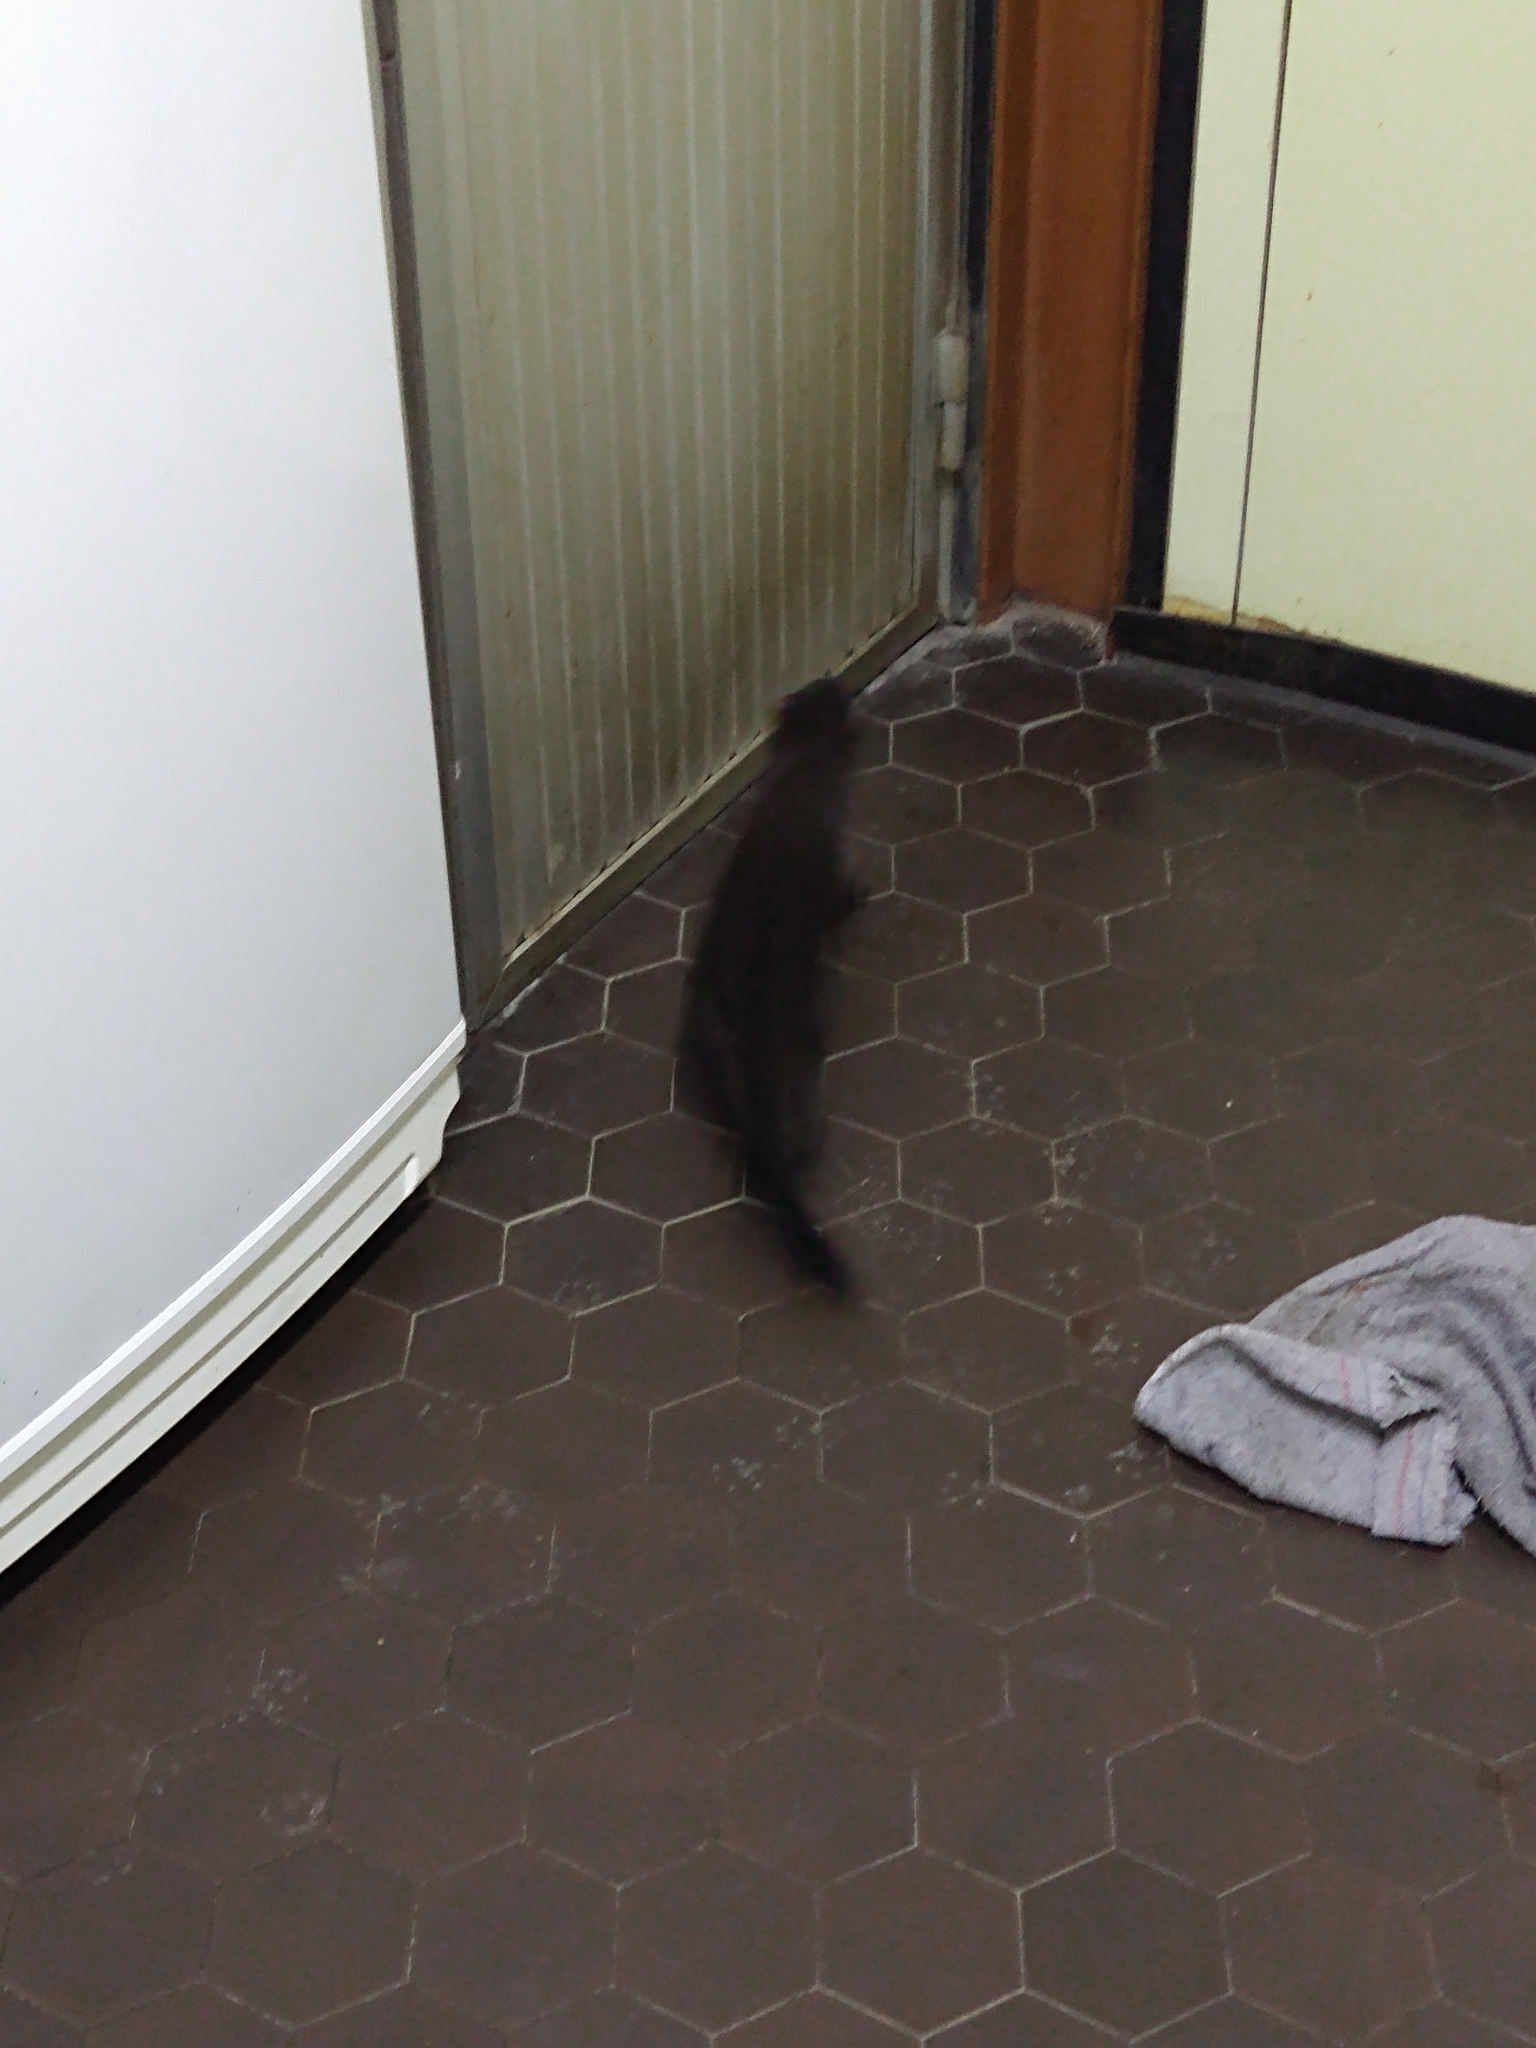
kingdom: Animalia
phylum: Chordata
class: Mammalia
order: Carnivora
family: Mustelidae
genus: Mustela
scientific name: Mustela
